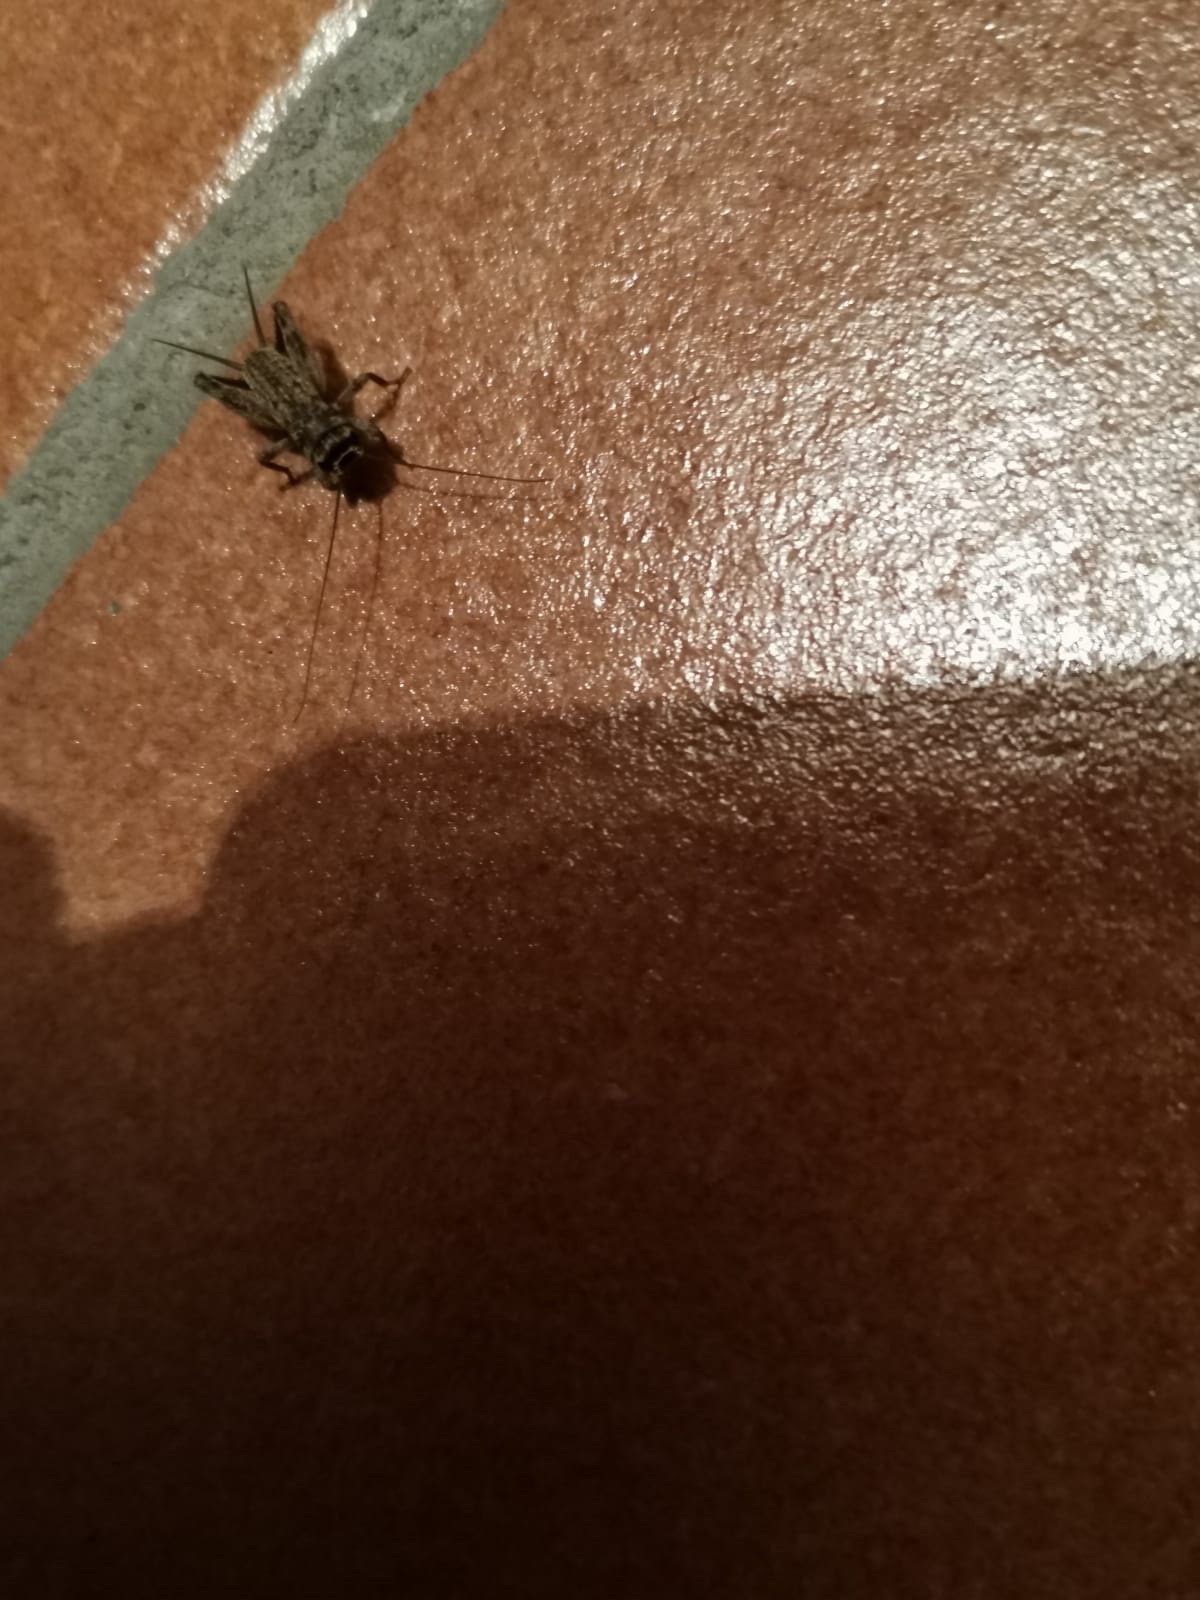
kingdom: Animalia
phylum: Arthropoda
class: Insecta
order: Orthoptera
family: Gryllidae
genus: Eumodicogryllus
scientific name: Eumodicogryllus bordigalensis
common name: Bordeaux cricket
